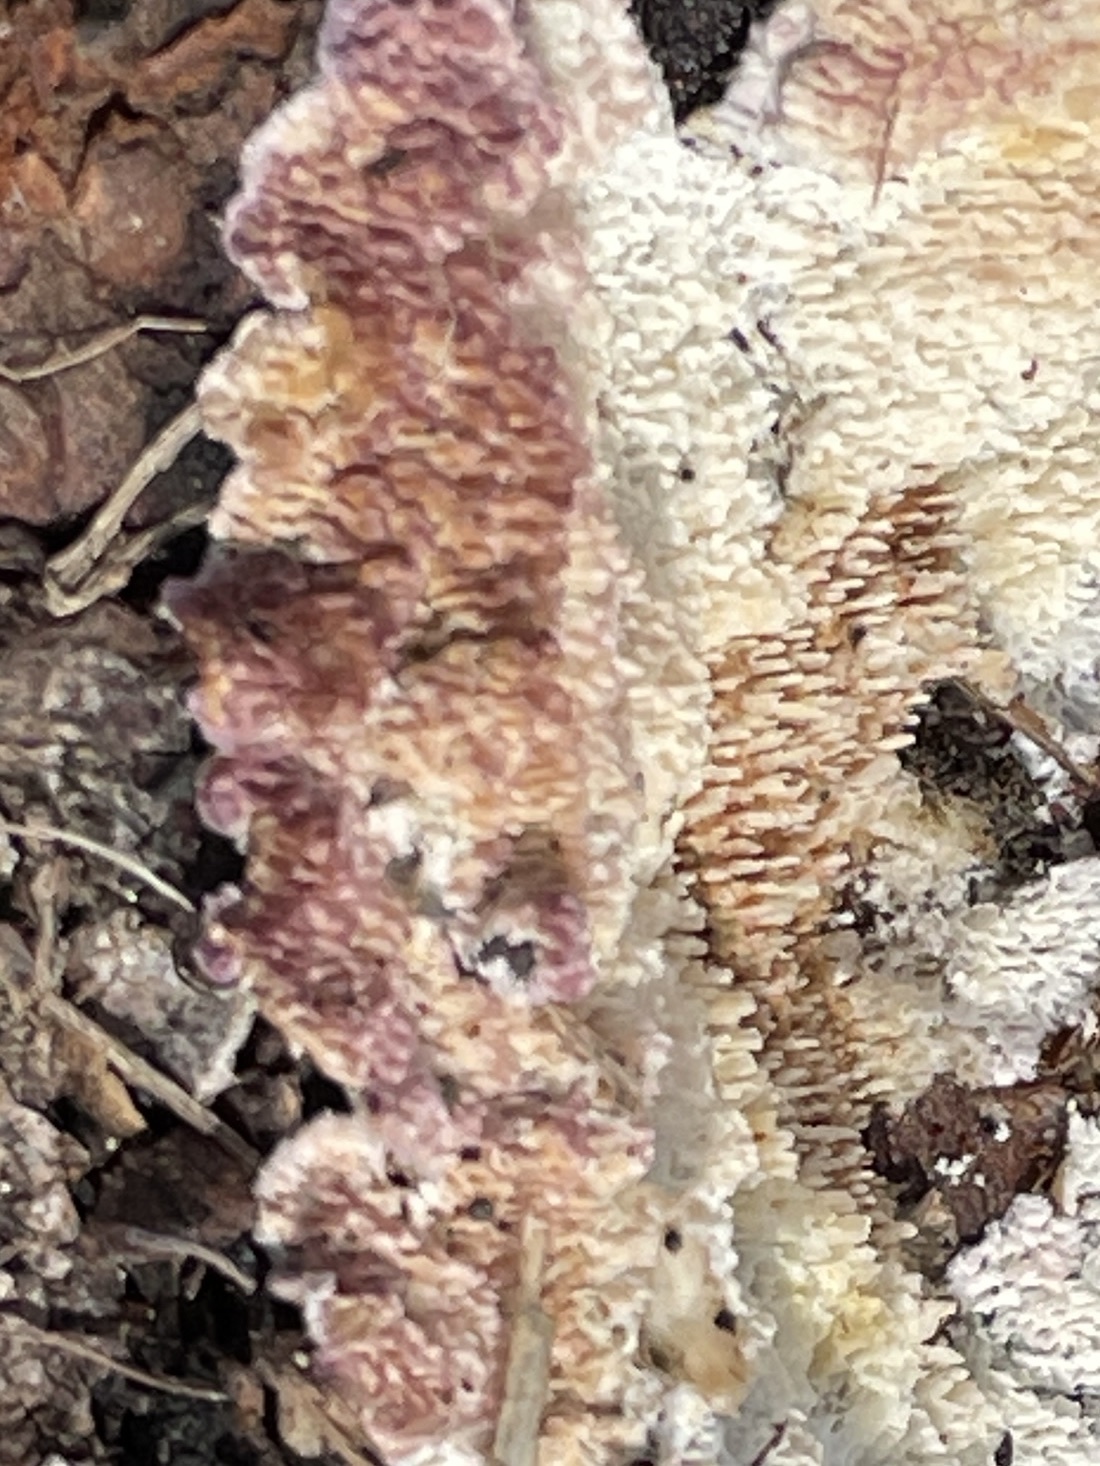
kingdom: Fungi
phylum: Basidiomycota
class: Agaricomycetes
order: Hymenochaetales
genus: Trichaptum
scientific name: Trichaptum abietinum
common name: Purplepore bracket
